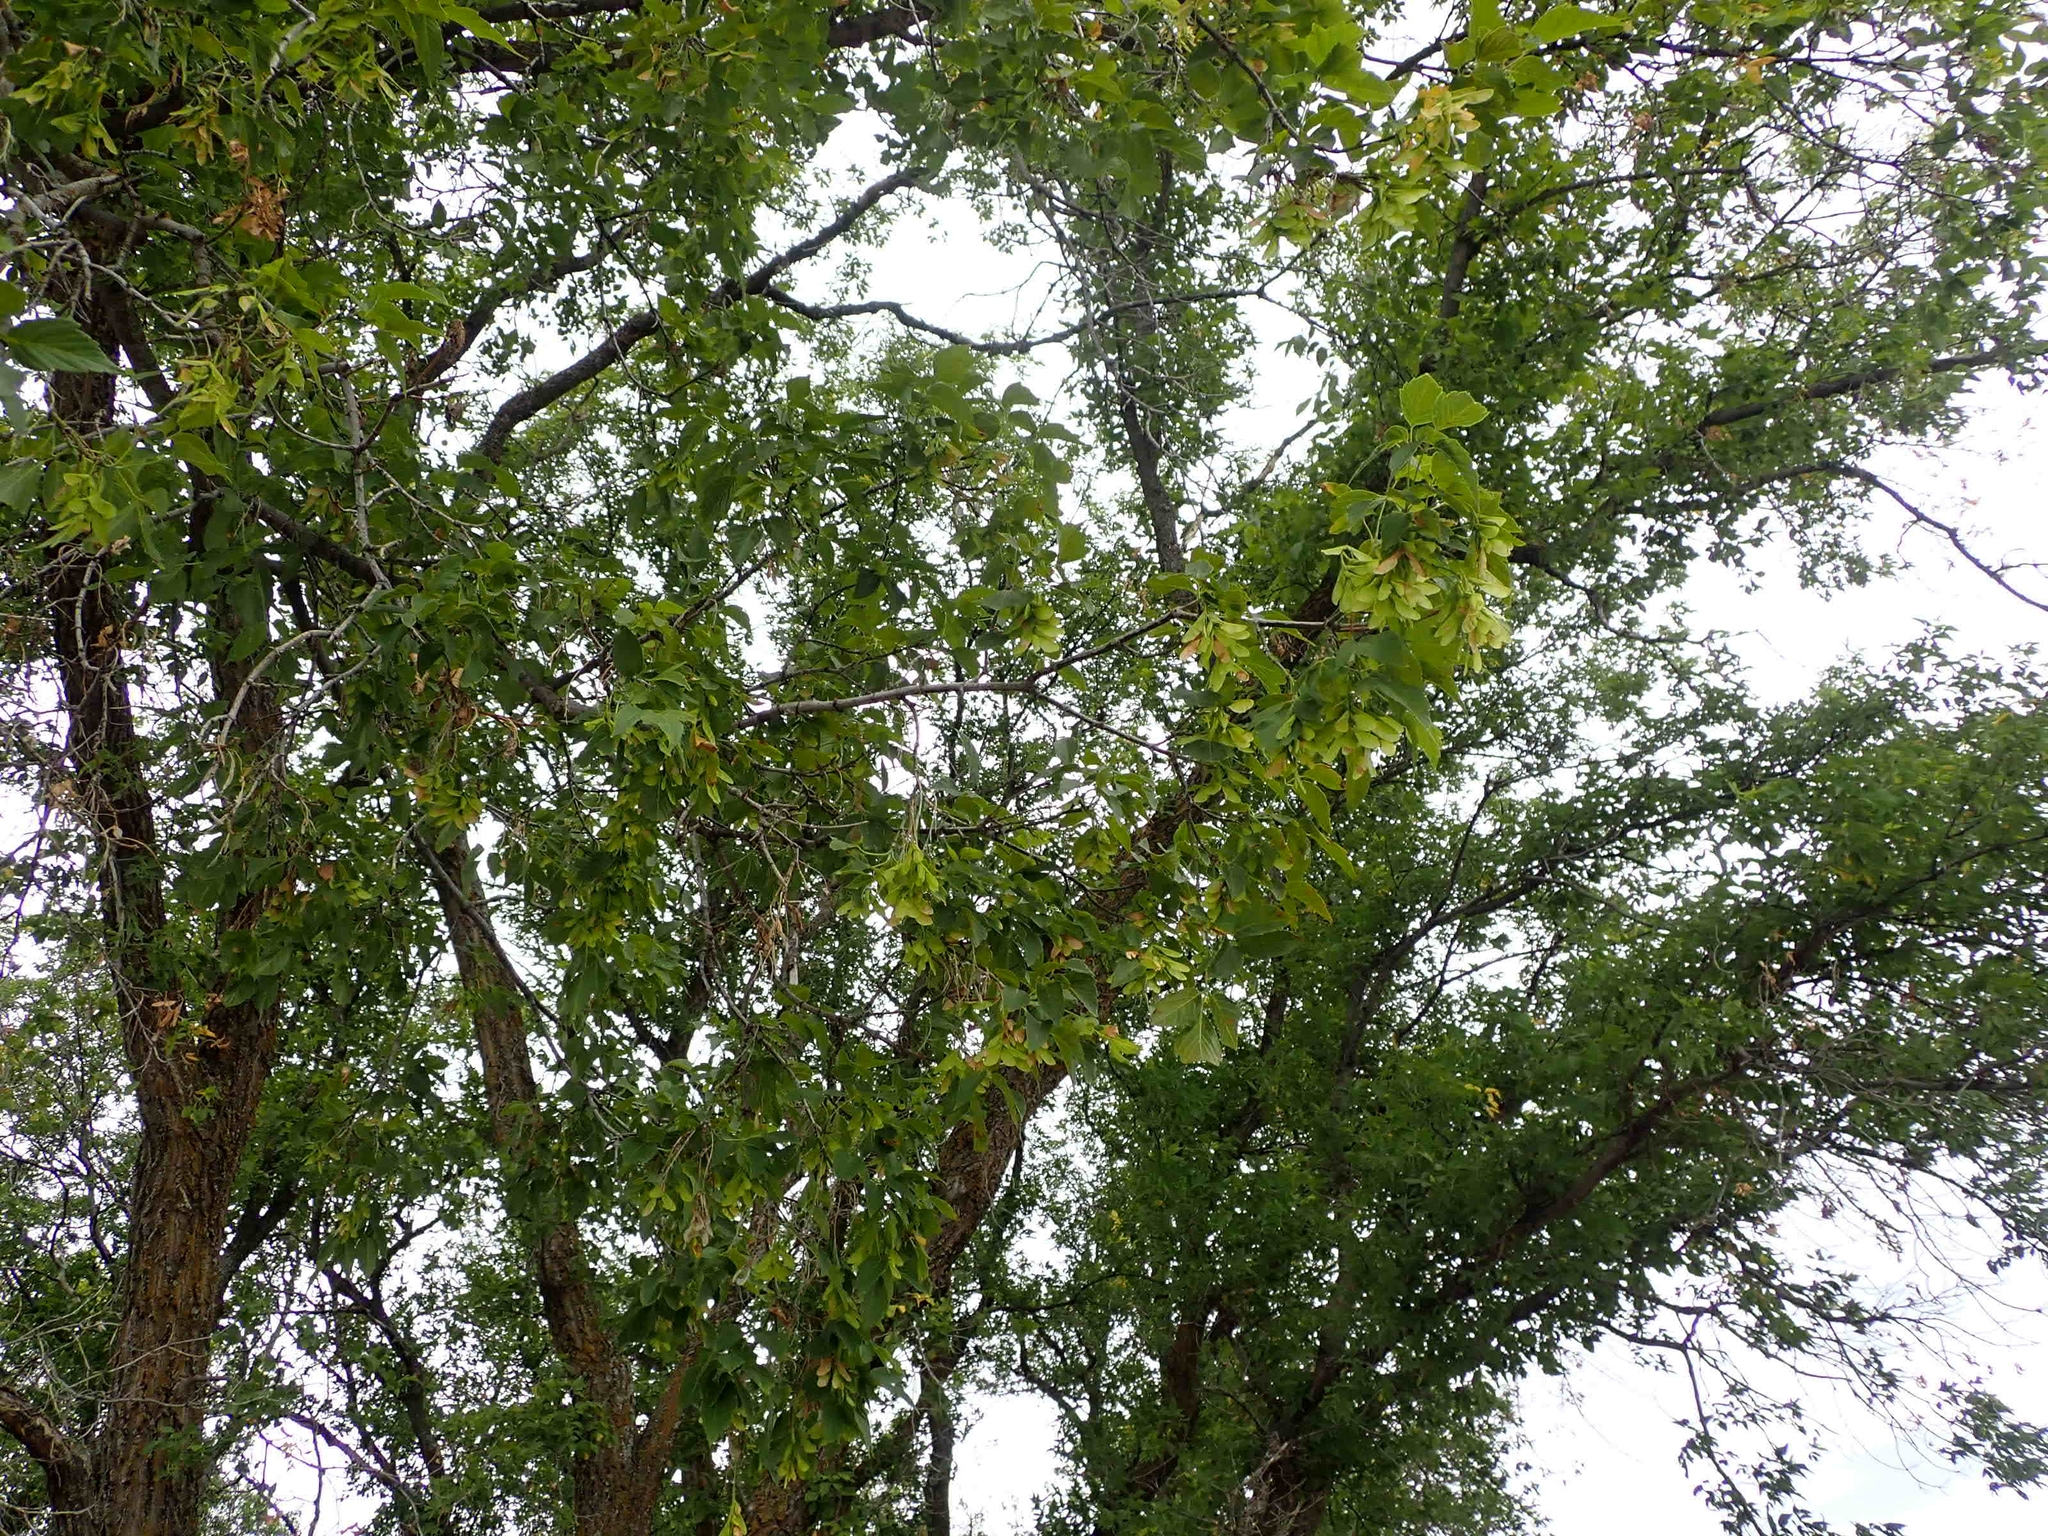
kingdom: Plantae
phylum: Tracheophyta
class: Magnoliopsida
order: Sapindales
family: Sapindaceae
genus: Acer
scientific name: Acer negundo
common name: Ashleaf maple
